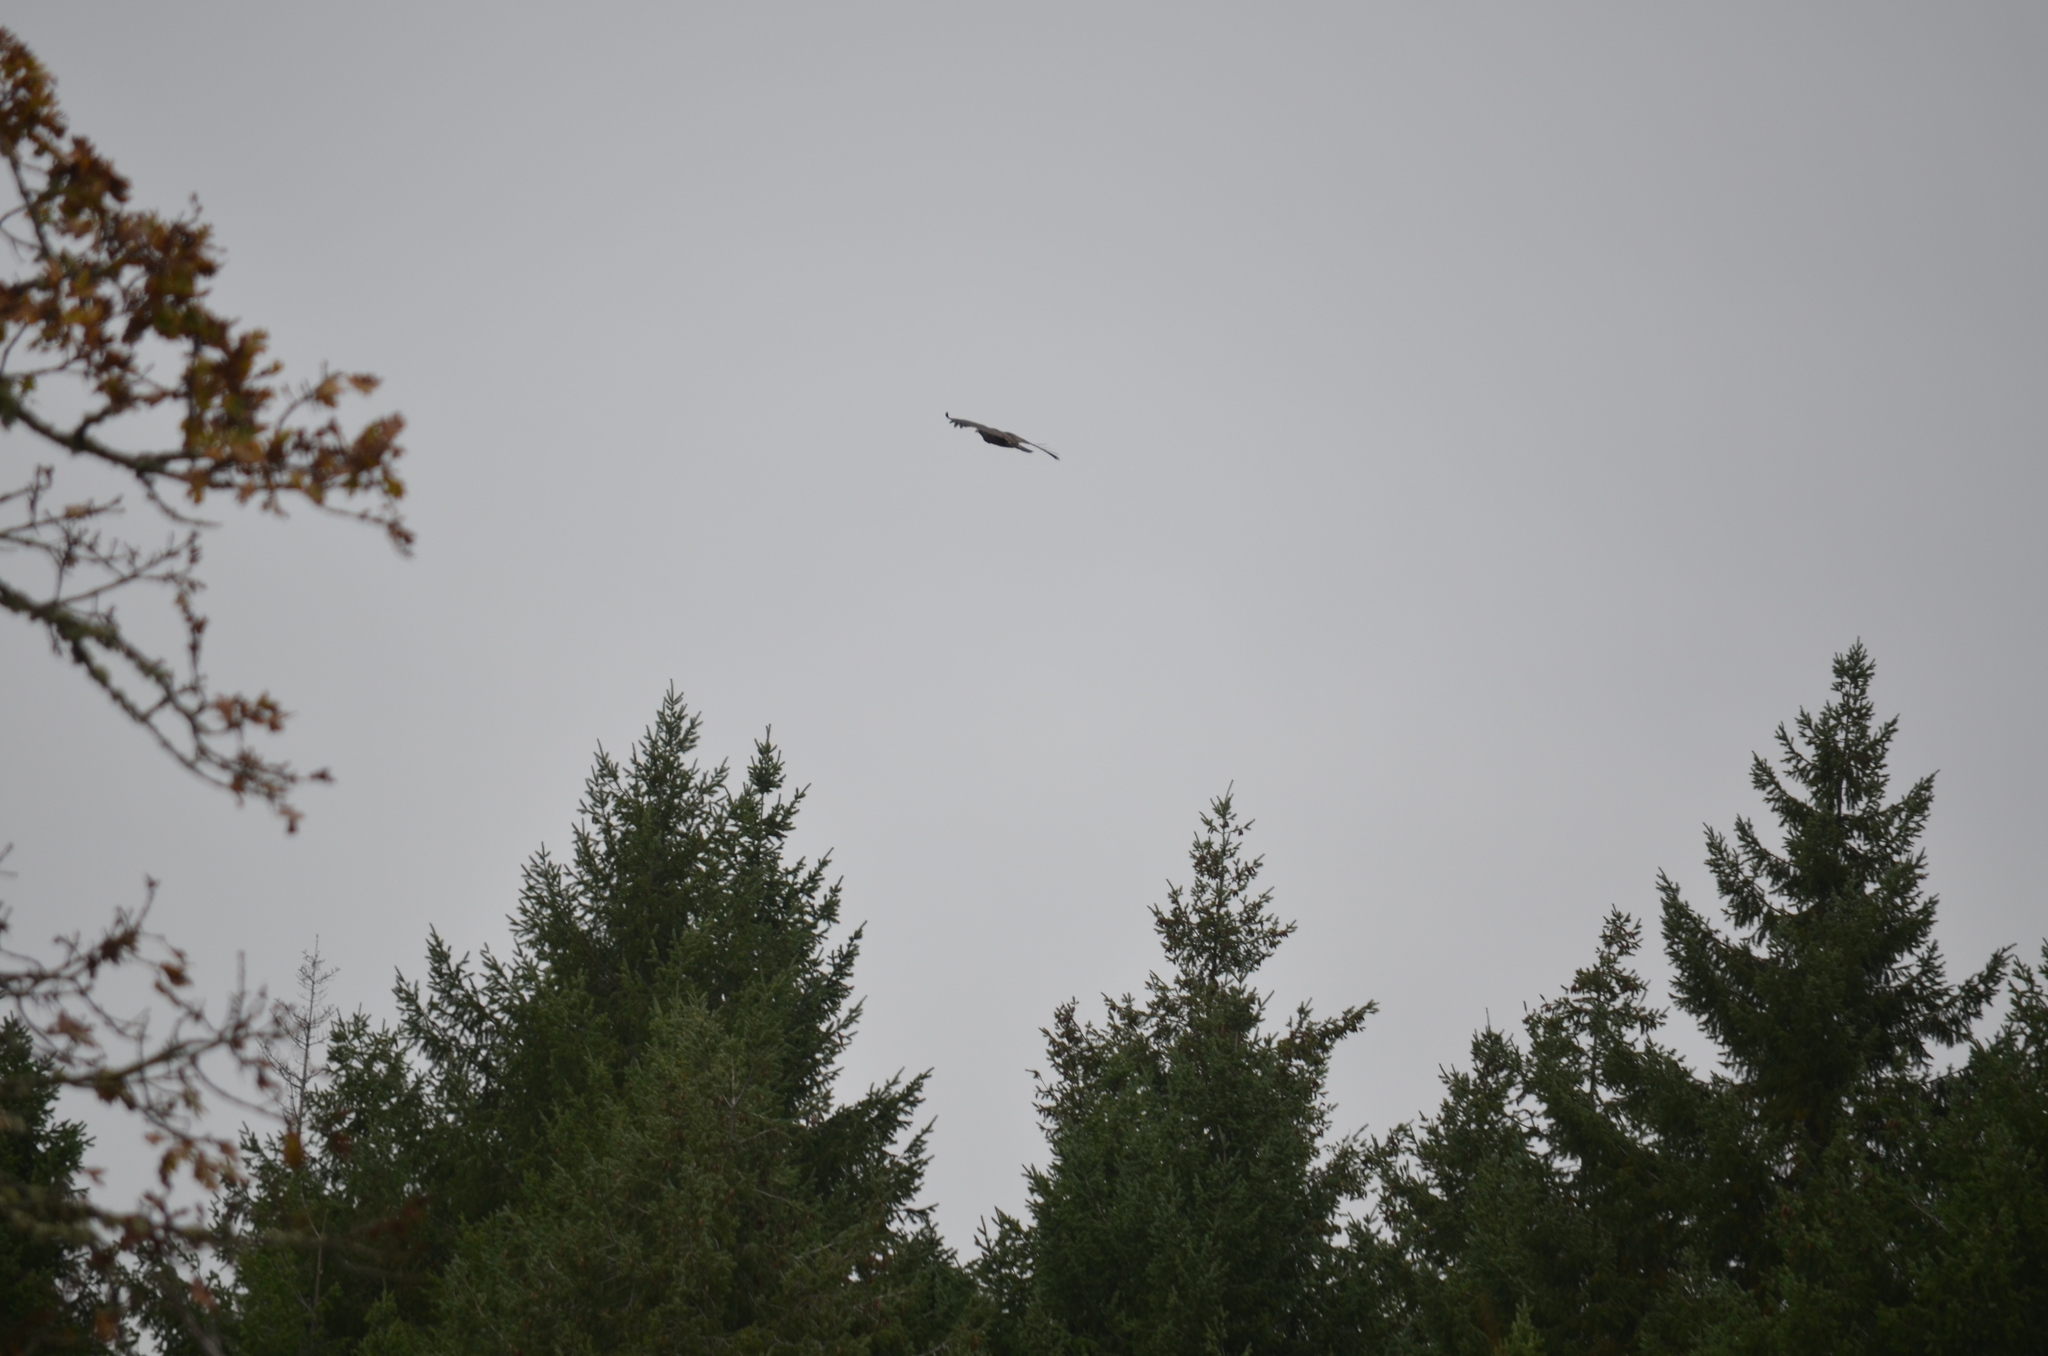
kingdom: Animalia
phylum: Chordata
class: Aves
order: Accipitriformes
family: Accipitridae
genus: Haliaeetus
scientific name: Haliaeetus leucocephalus
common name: Bald eagle
